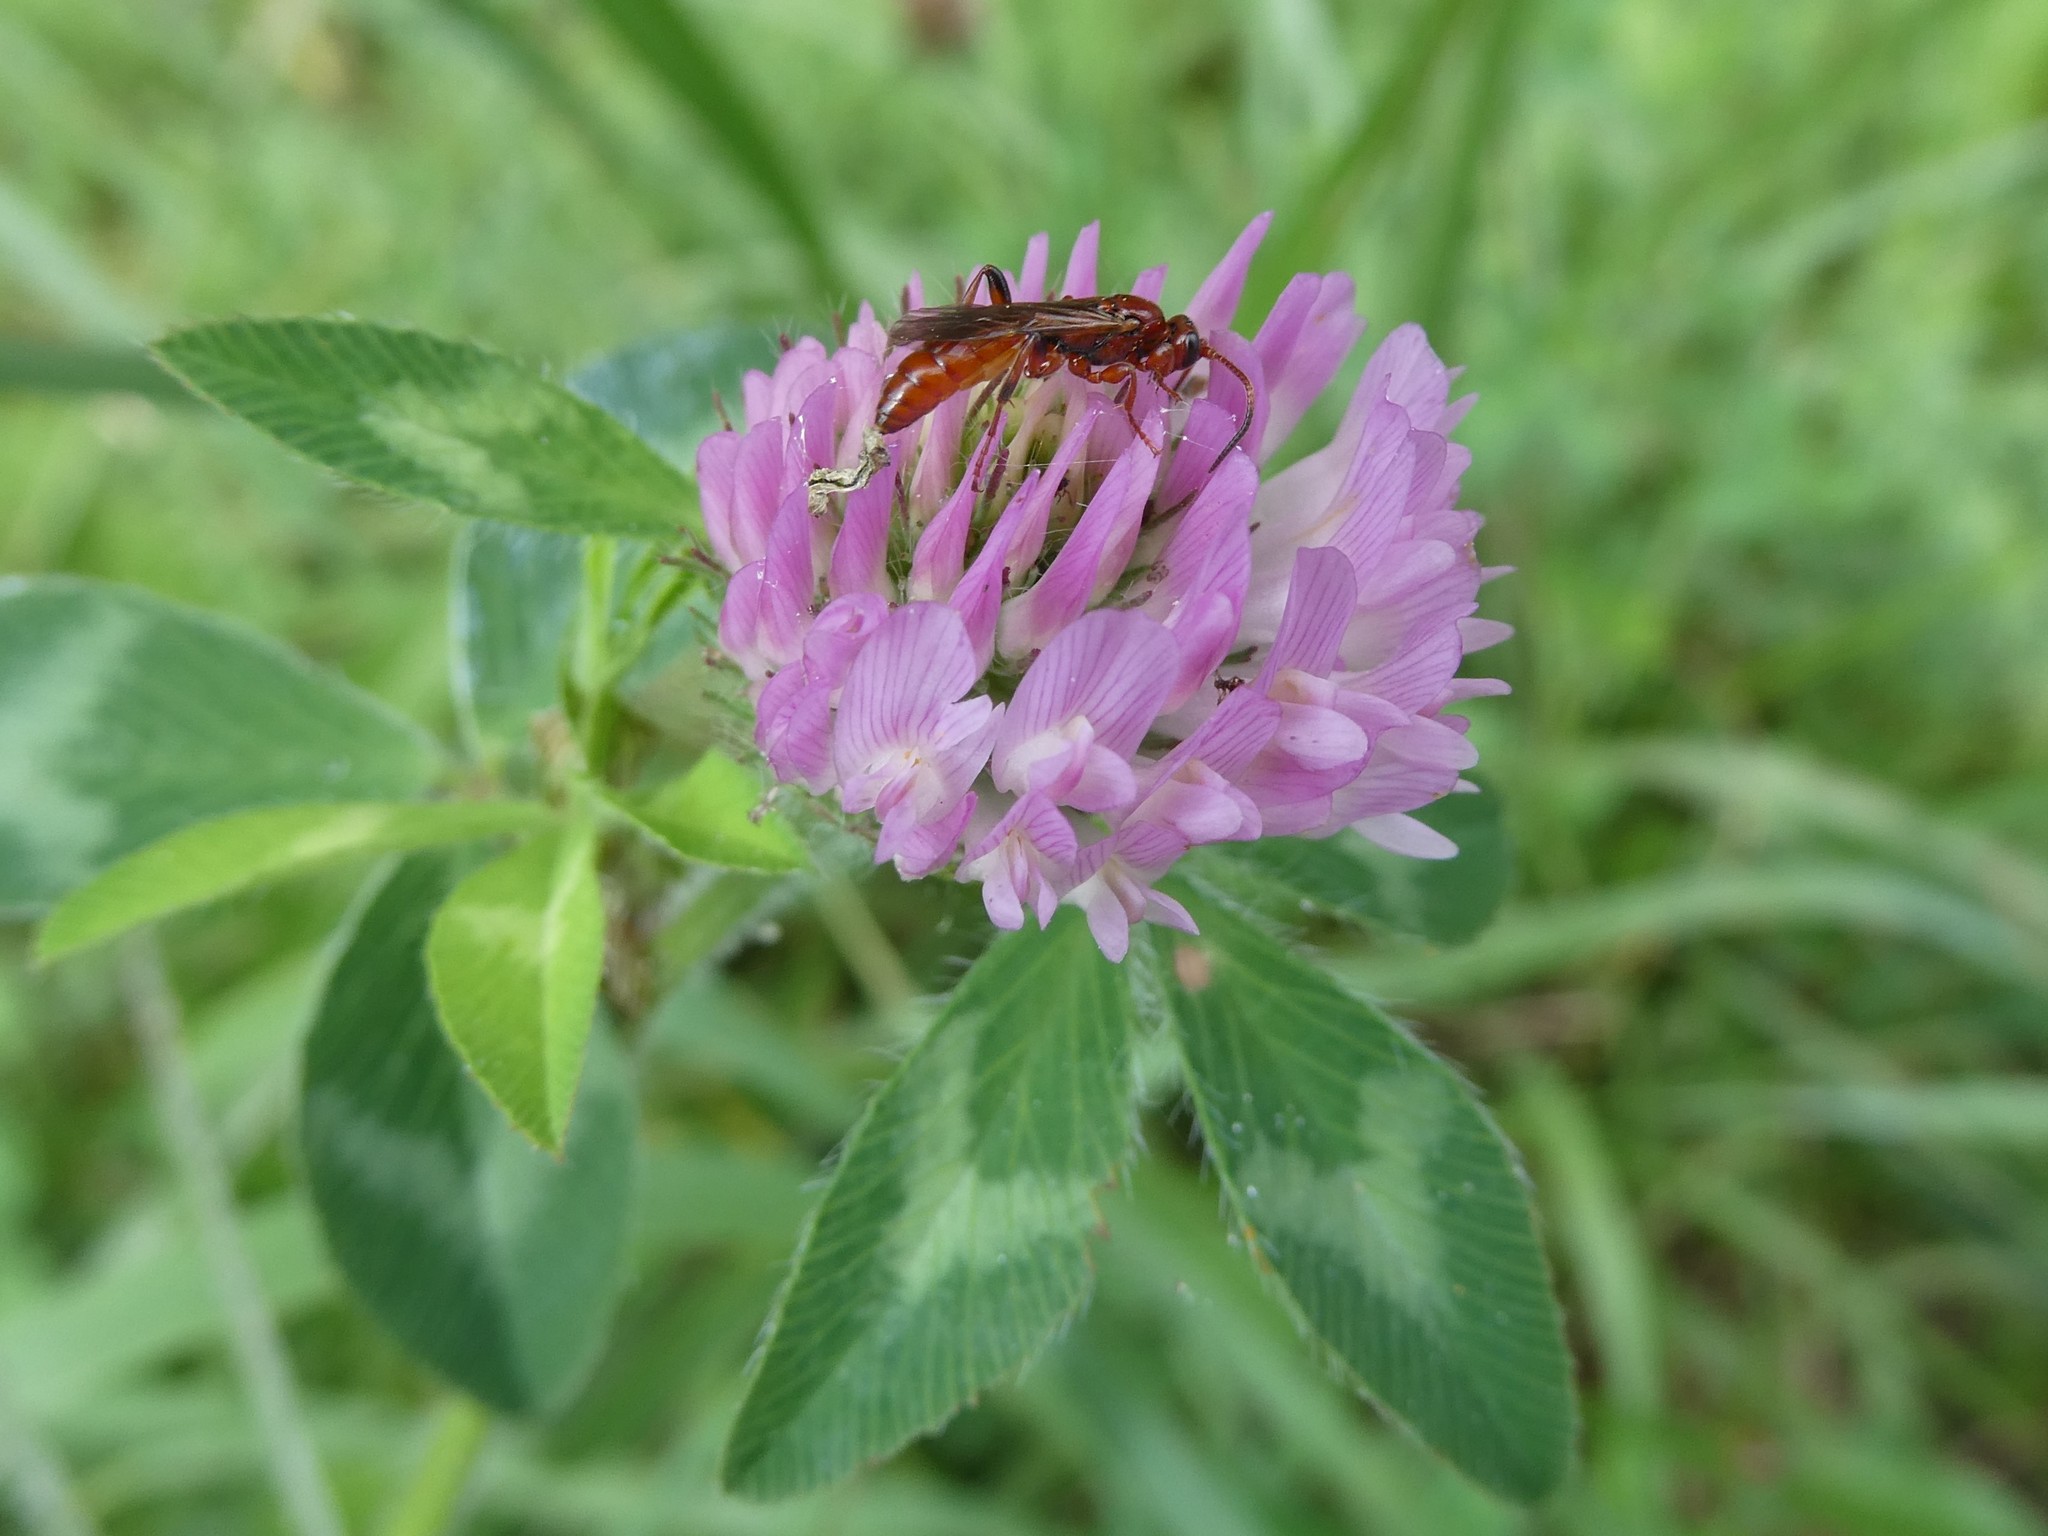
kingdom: Plantae
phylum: Tracheophyta
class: Magnoliopsida
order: Fabales
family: Fabaceae
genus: Trifolium
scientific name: Trifolium pratense
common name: Red clover
